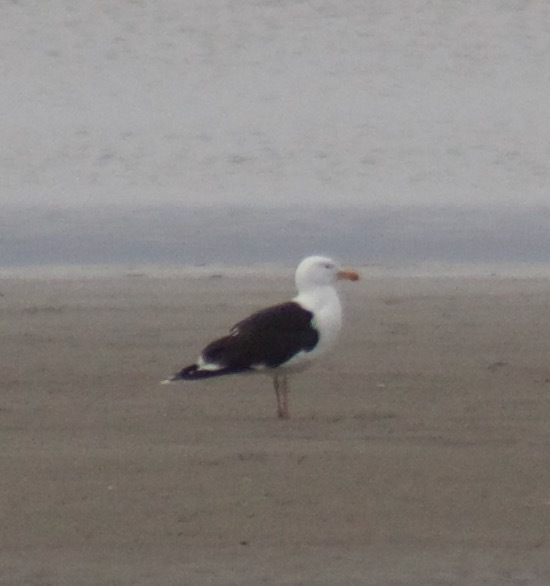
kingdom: Animalia
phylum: Chordata
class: Aves
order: Charadriiformes
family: Laridae
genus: Larus
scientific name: Larus marinus
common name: Great black-backed gull
